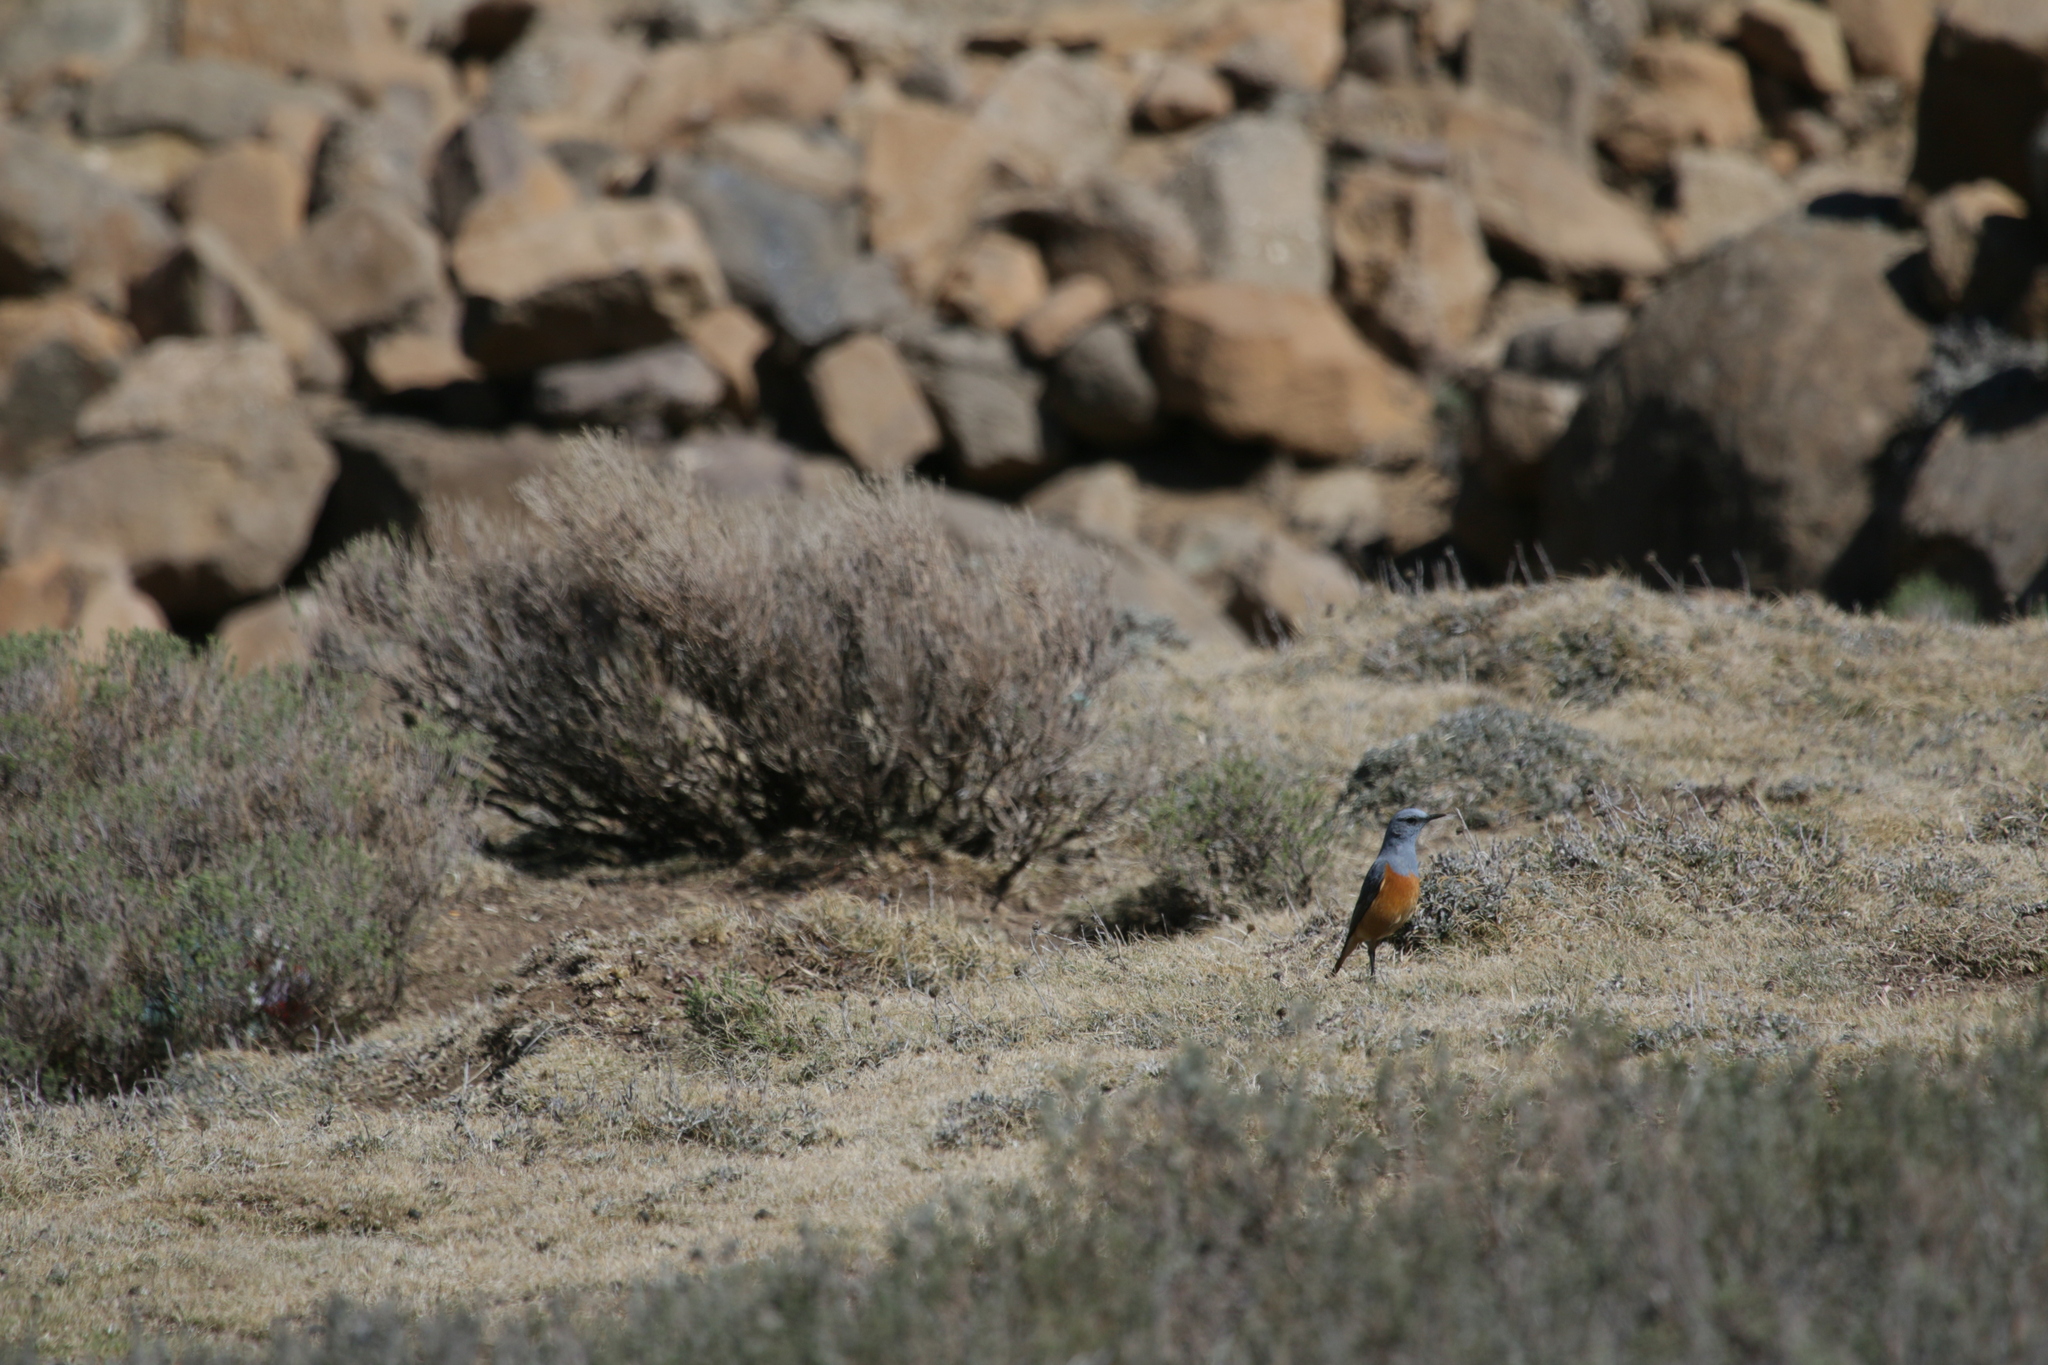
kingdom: Animalia
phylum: Chordata
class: Aves
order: Passeriformes
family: Muscicapidae
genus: Monticola
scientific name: Monticola explorator
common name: Sentinel rock thrush
